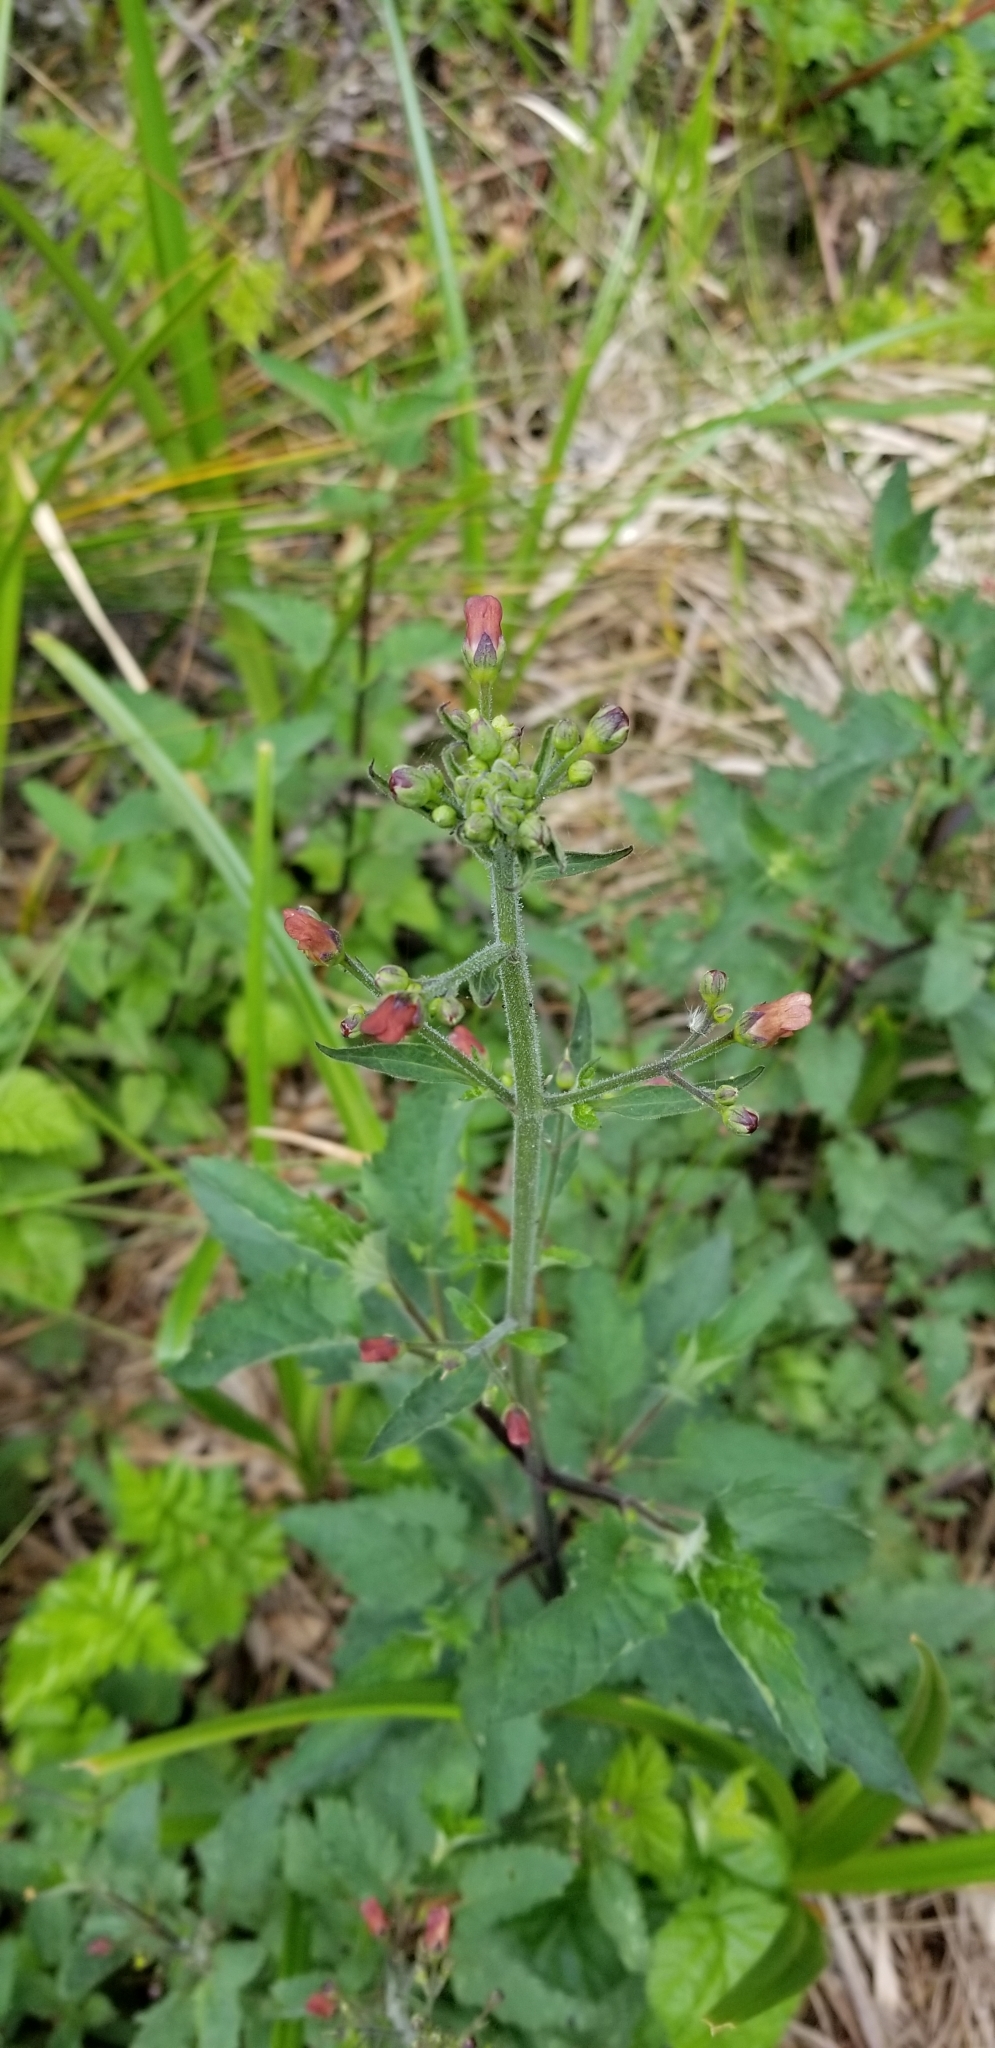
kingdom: Plantae
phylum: Tracheophyta
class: Magnoliopsida
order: Lamiales
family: Scrophulariaceae
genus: Scrophularia
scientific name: Scrophularia californica
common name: California figwort
